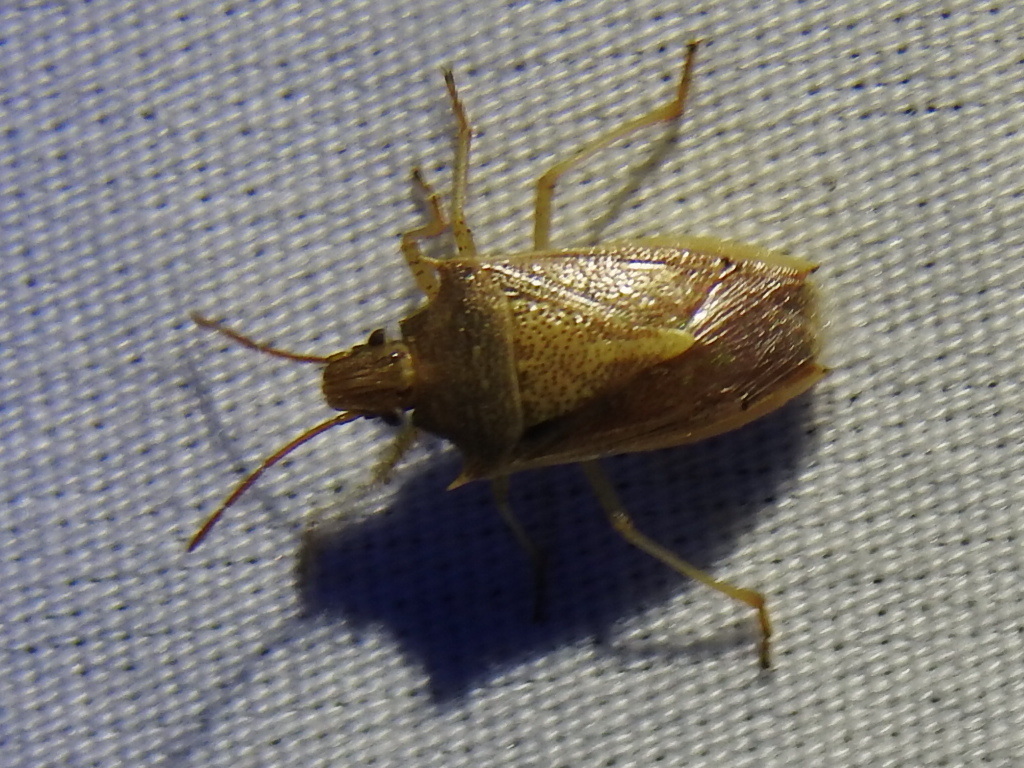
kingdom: Animalia
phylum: Arthropoda
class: Insecta
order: Hemiptera
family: Pentatomidae
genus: Oebalus
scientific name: Oebalus pugnax
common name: Rice stink bug
